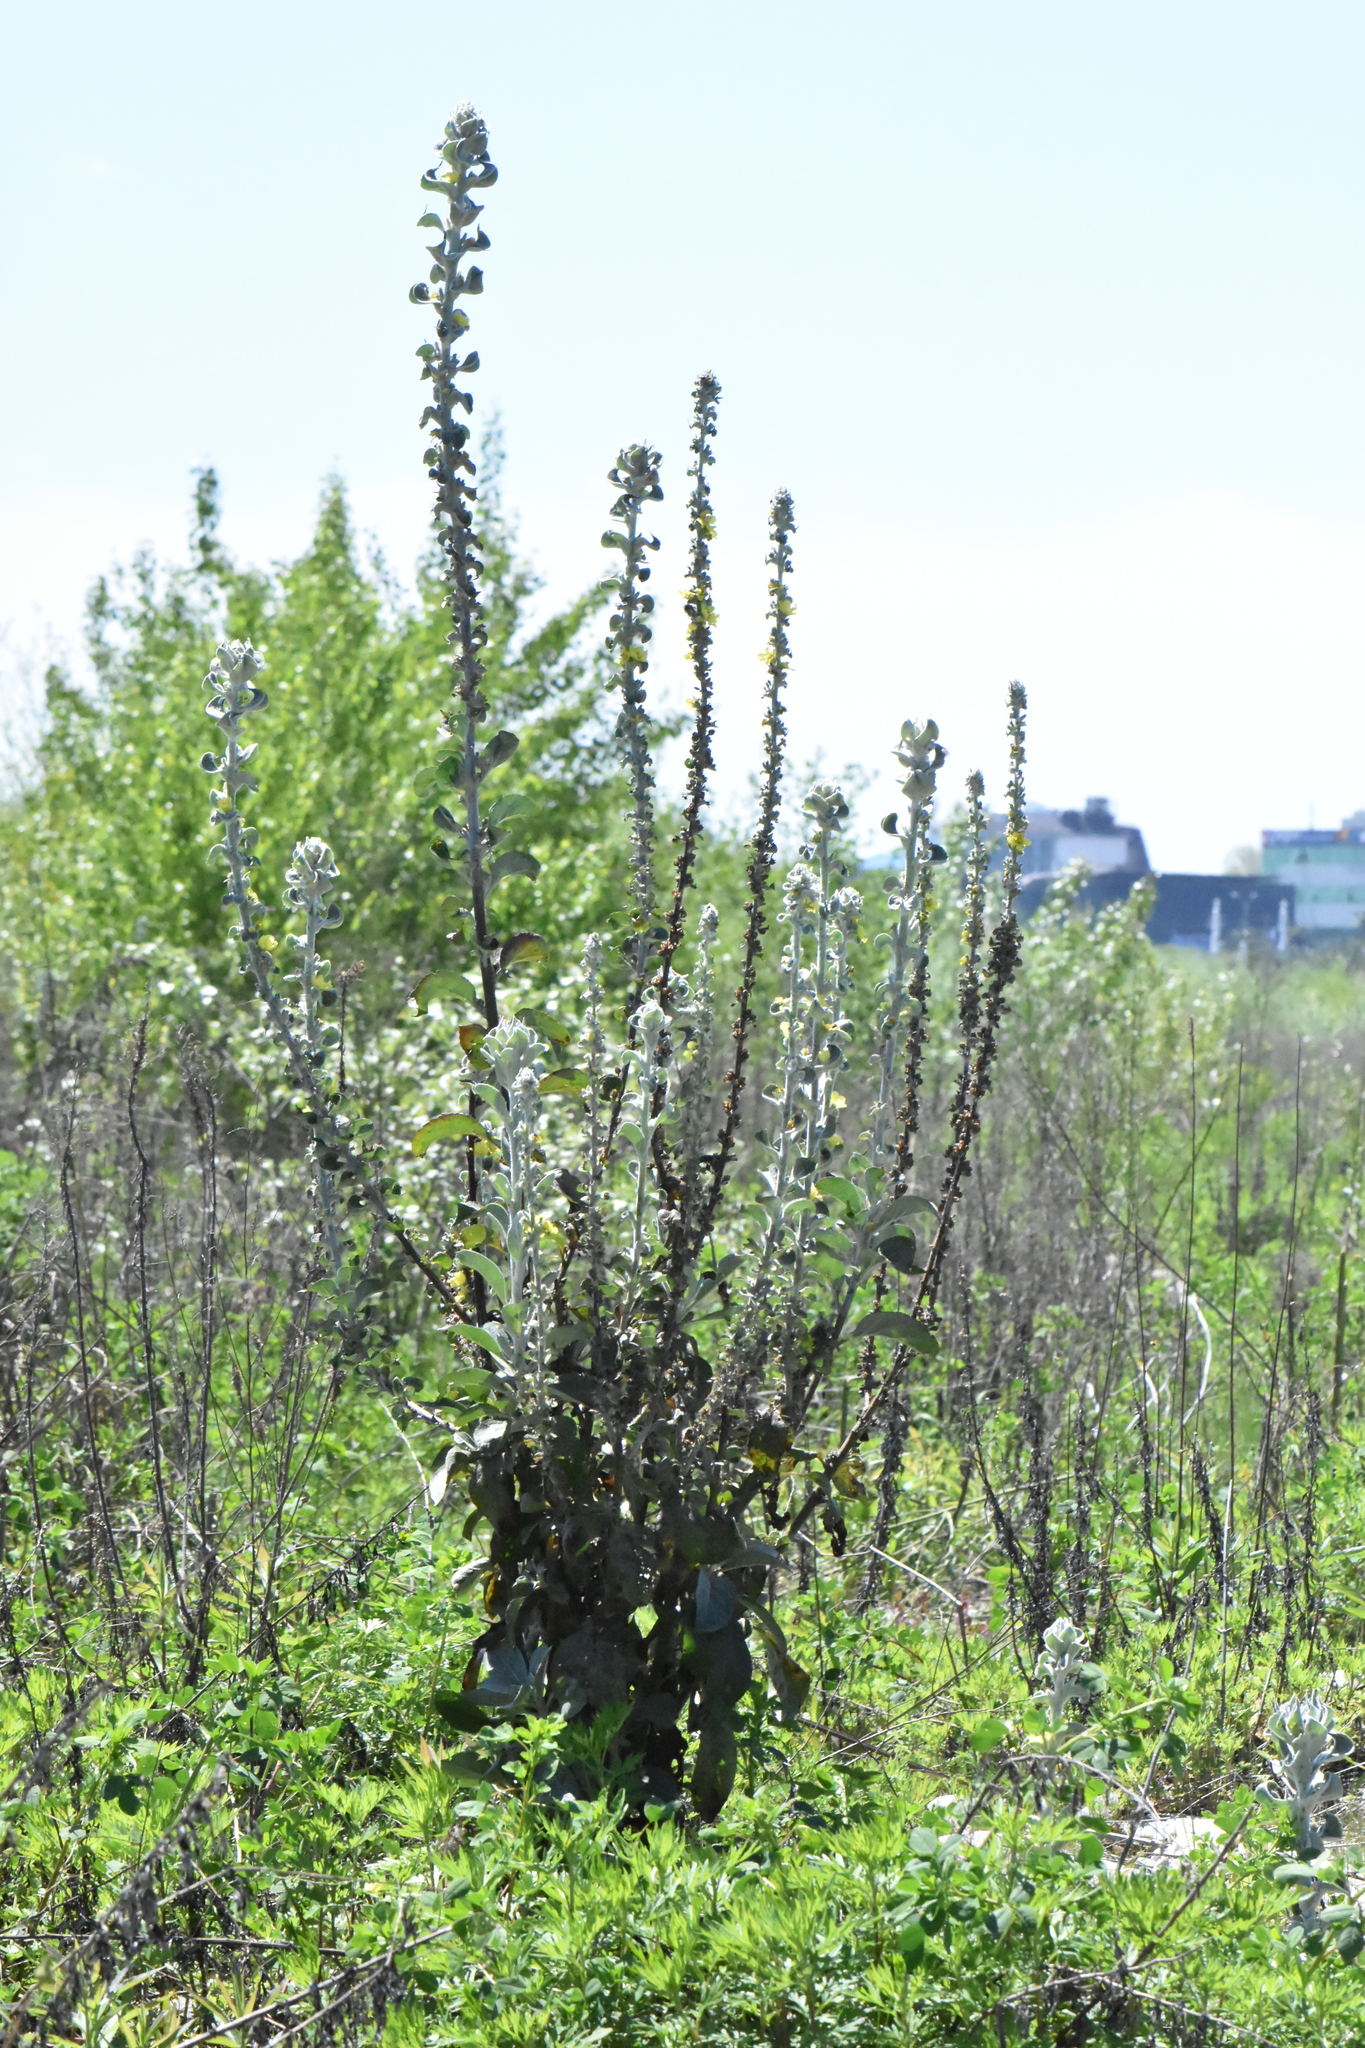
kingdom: Plantae
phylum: Tracheophyta
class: Magnoliopsida
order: Lamiales
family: Scrophulariaceae
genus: Verbascum
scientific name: Verbascum gnaphalodes
